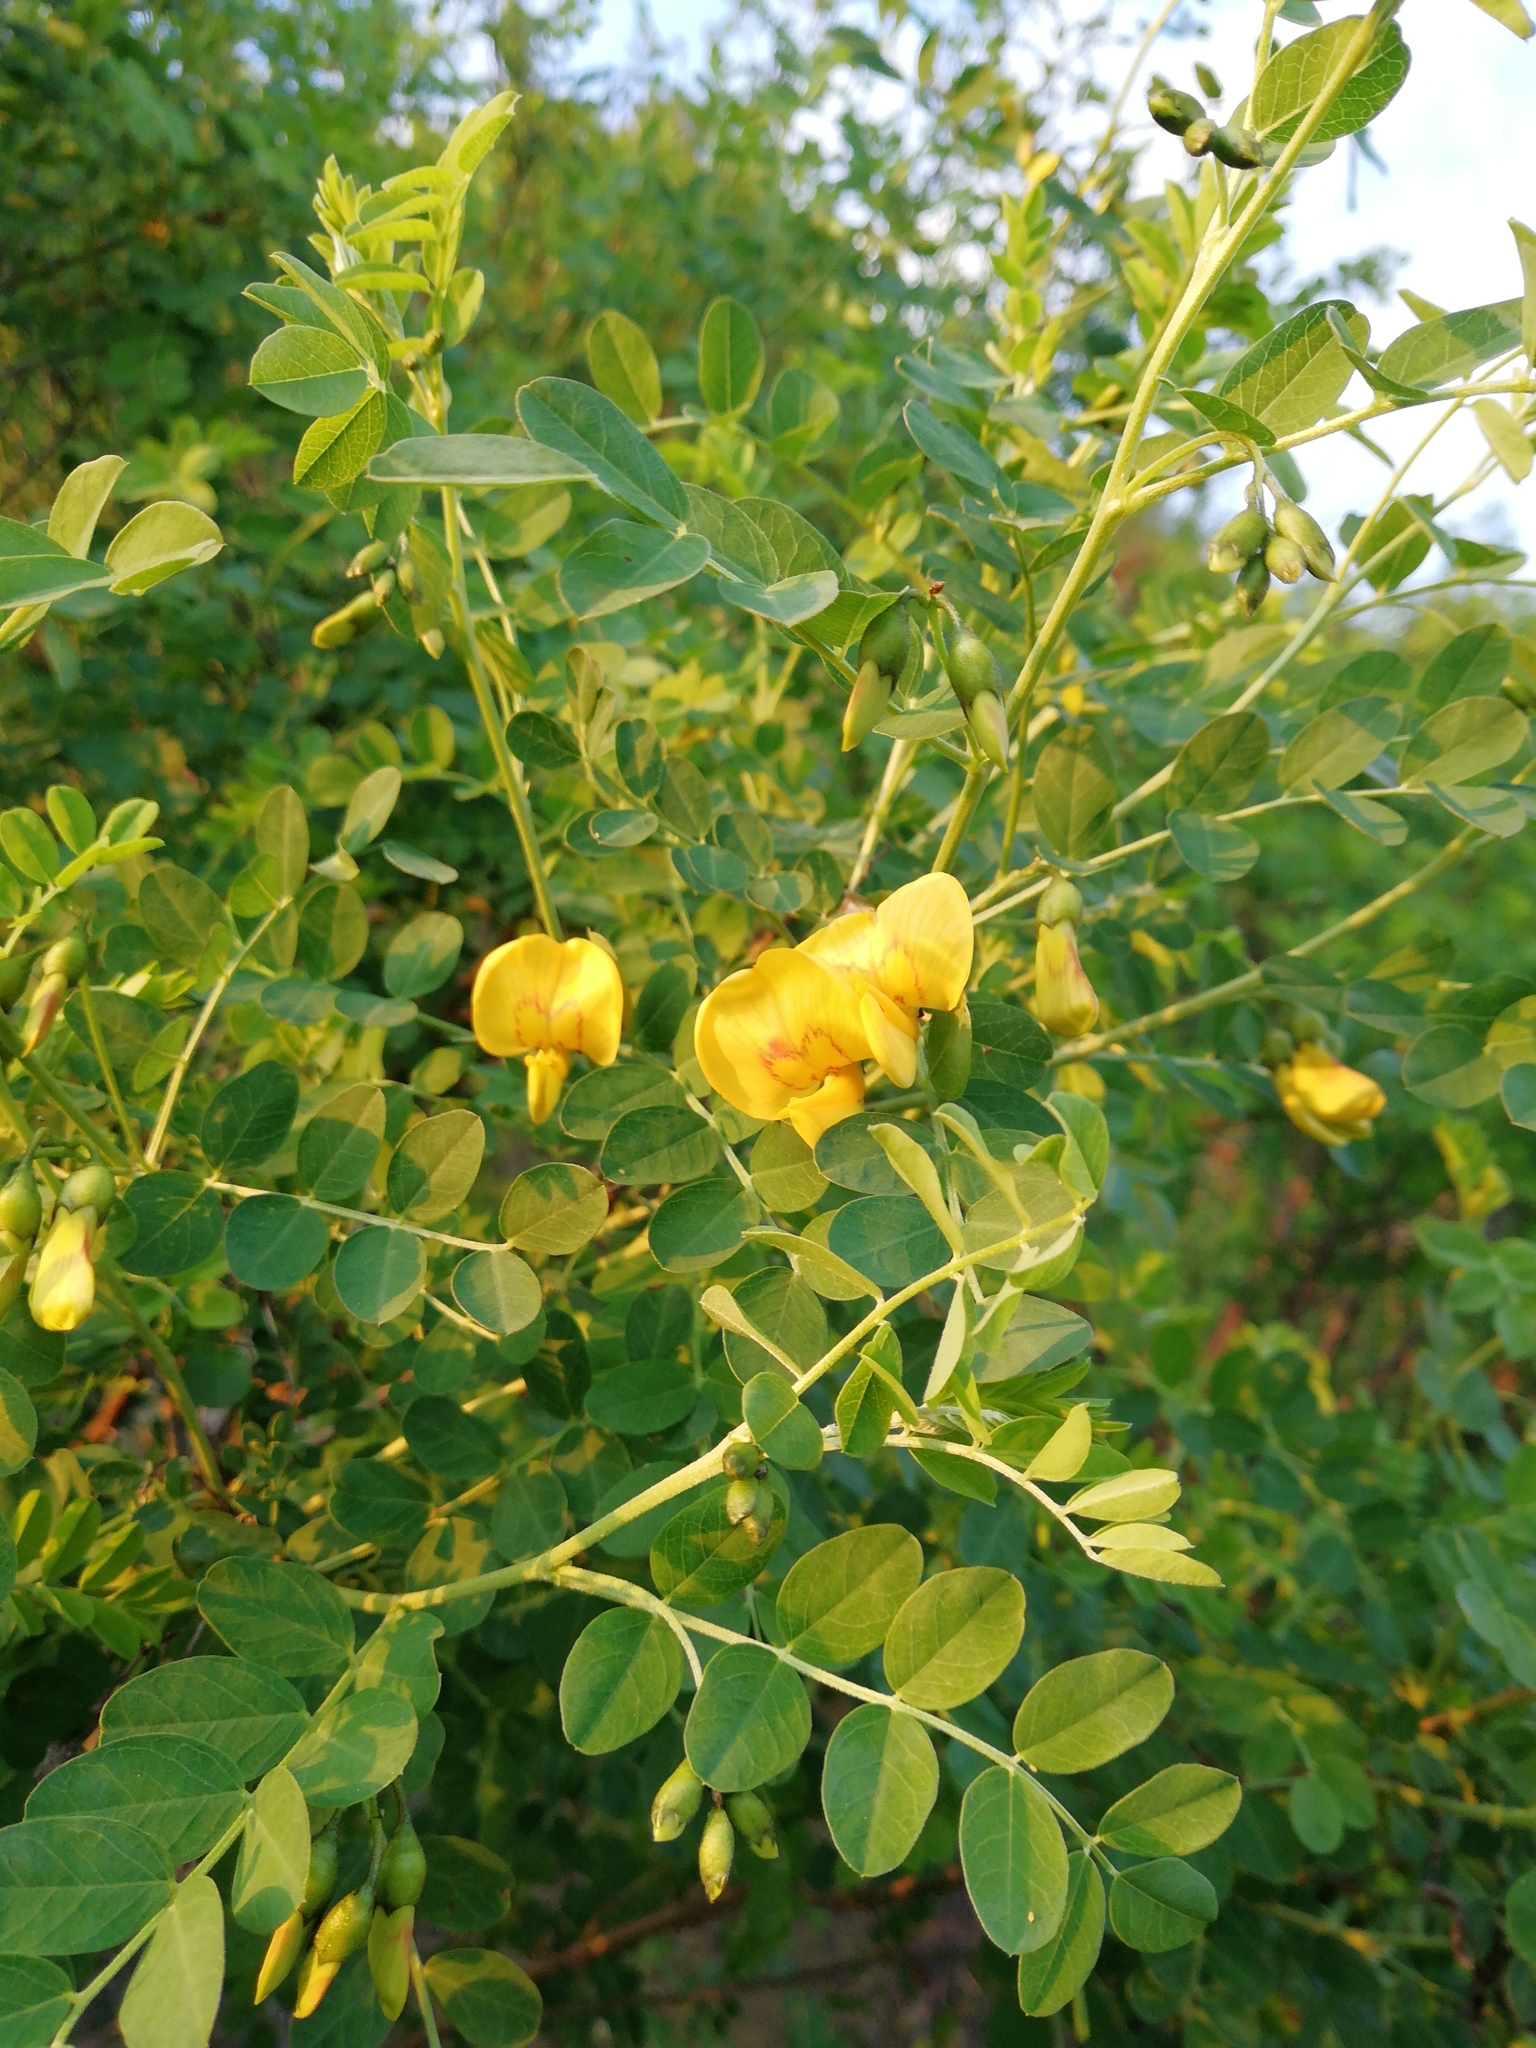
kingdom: Plantae
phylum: Tracheophyta
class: Magnoliopsida
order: Fabales
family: Fabaceae
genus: Colutea
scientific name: Colutea cilicica
